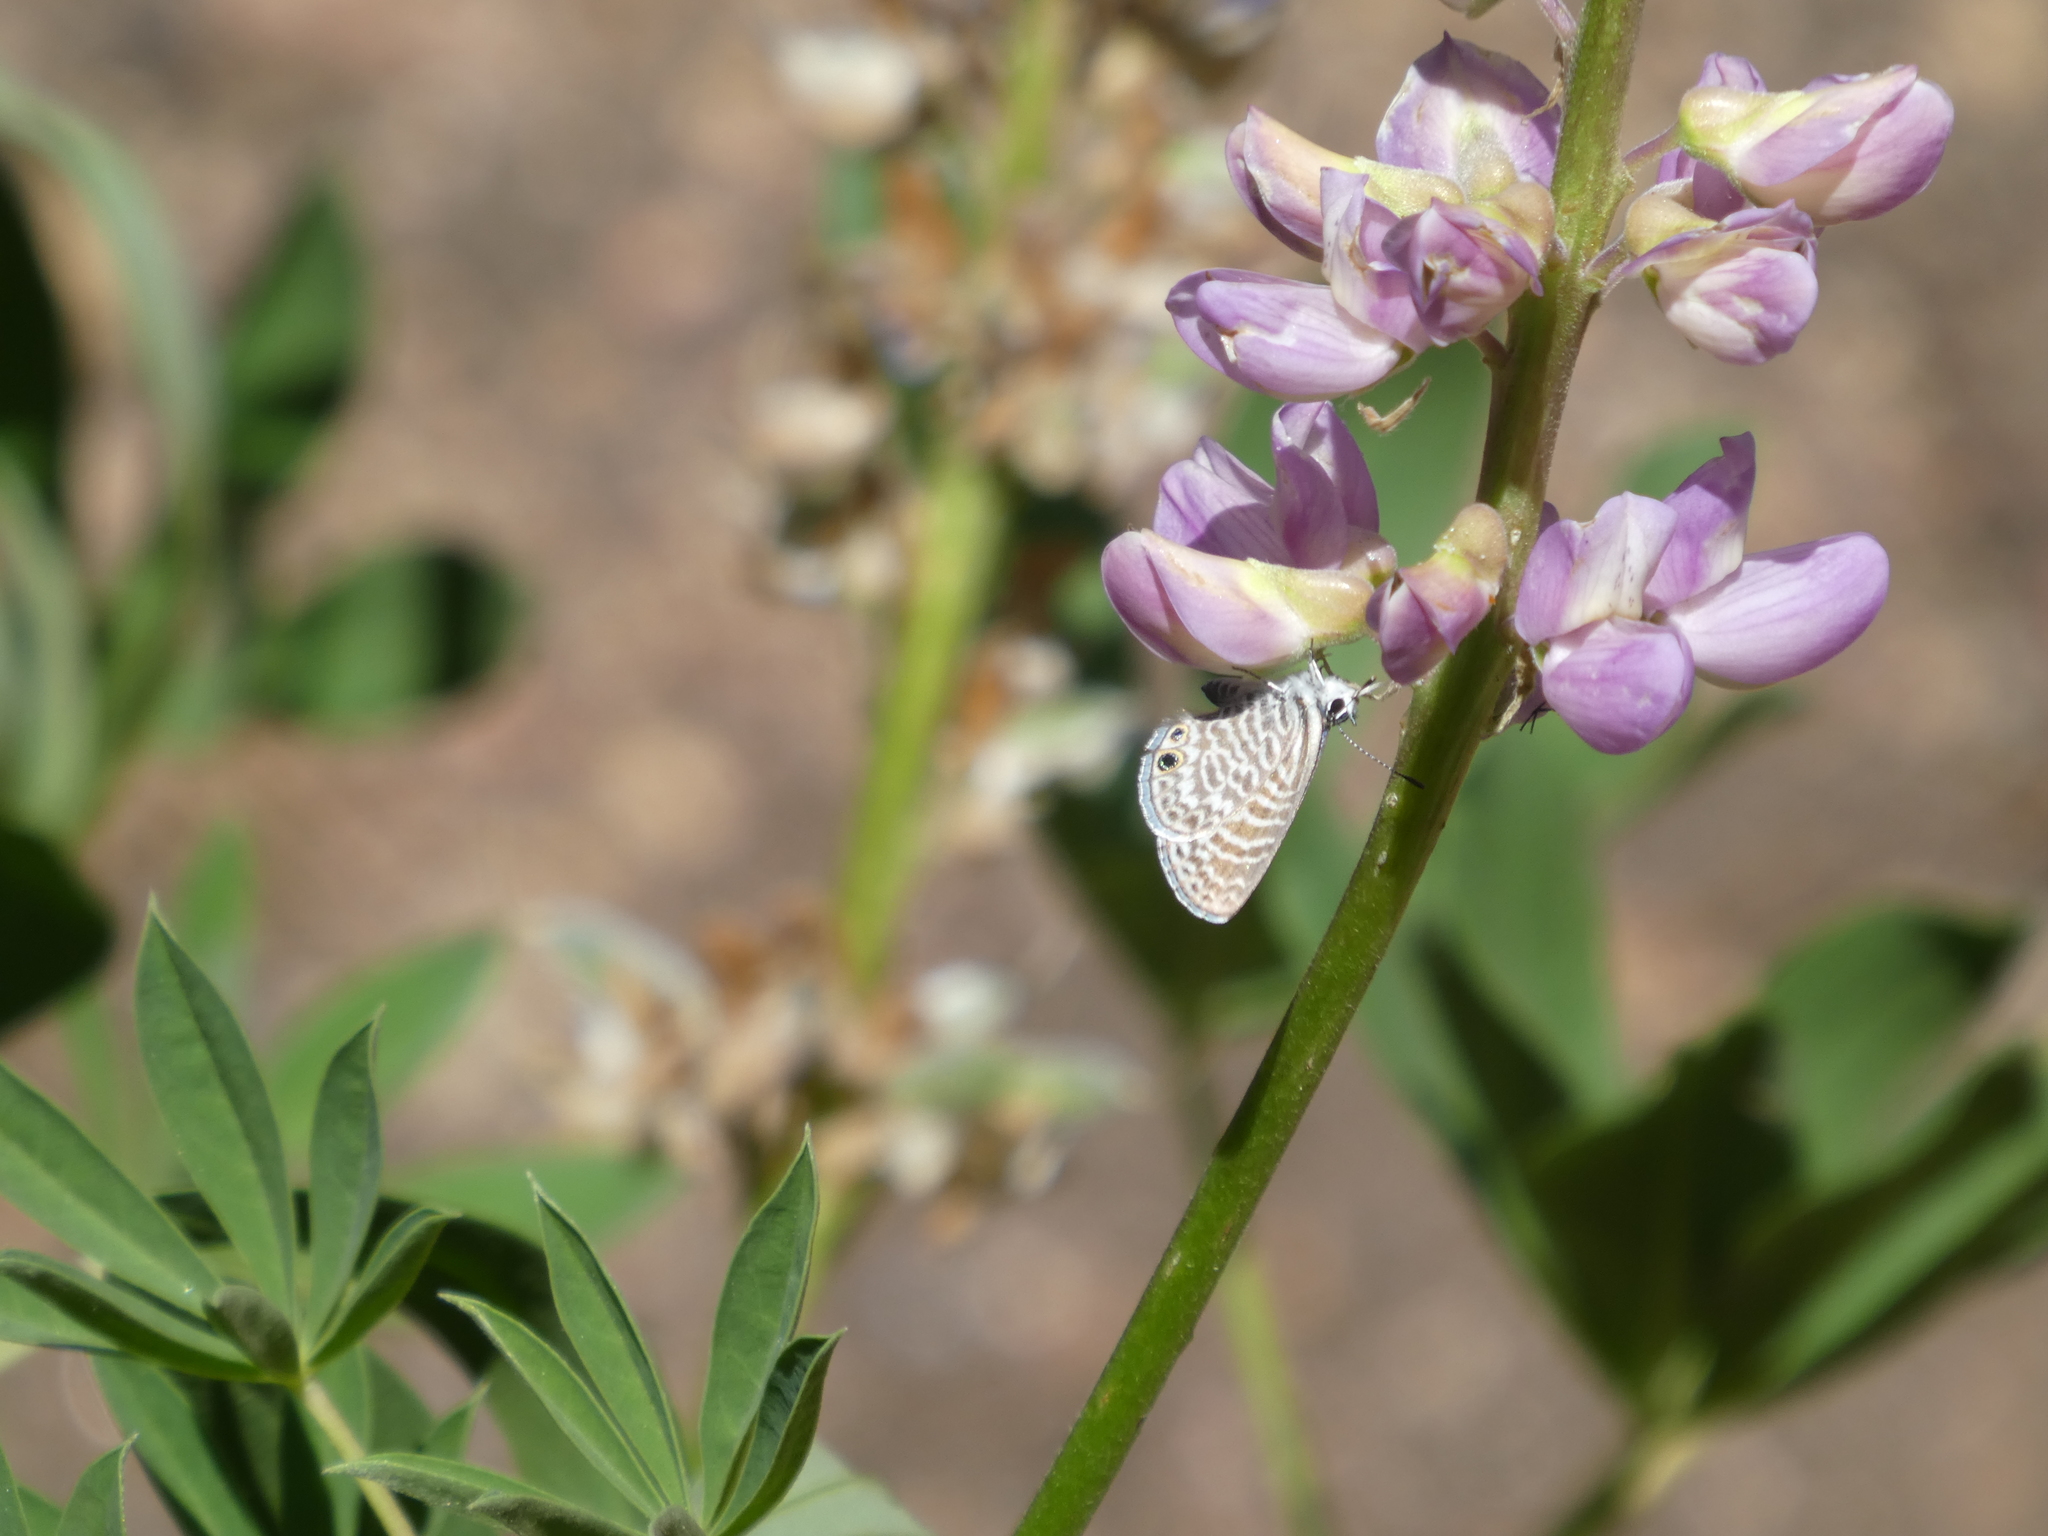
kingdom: Animalia
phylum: Arthropoda
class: Insecta
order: Lepidoptera
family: Lycaenidae
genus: Leptotes
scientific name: Leptotes marina
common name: Marine blue
